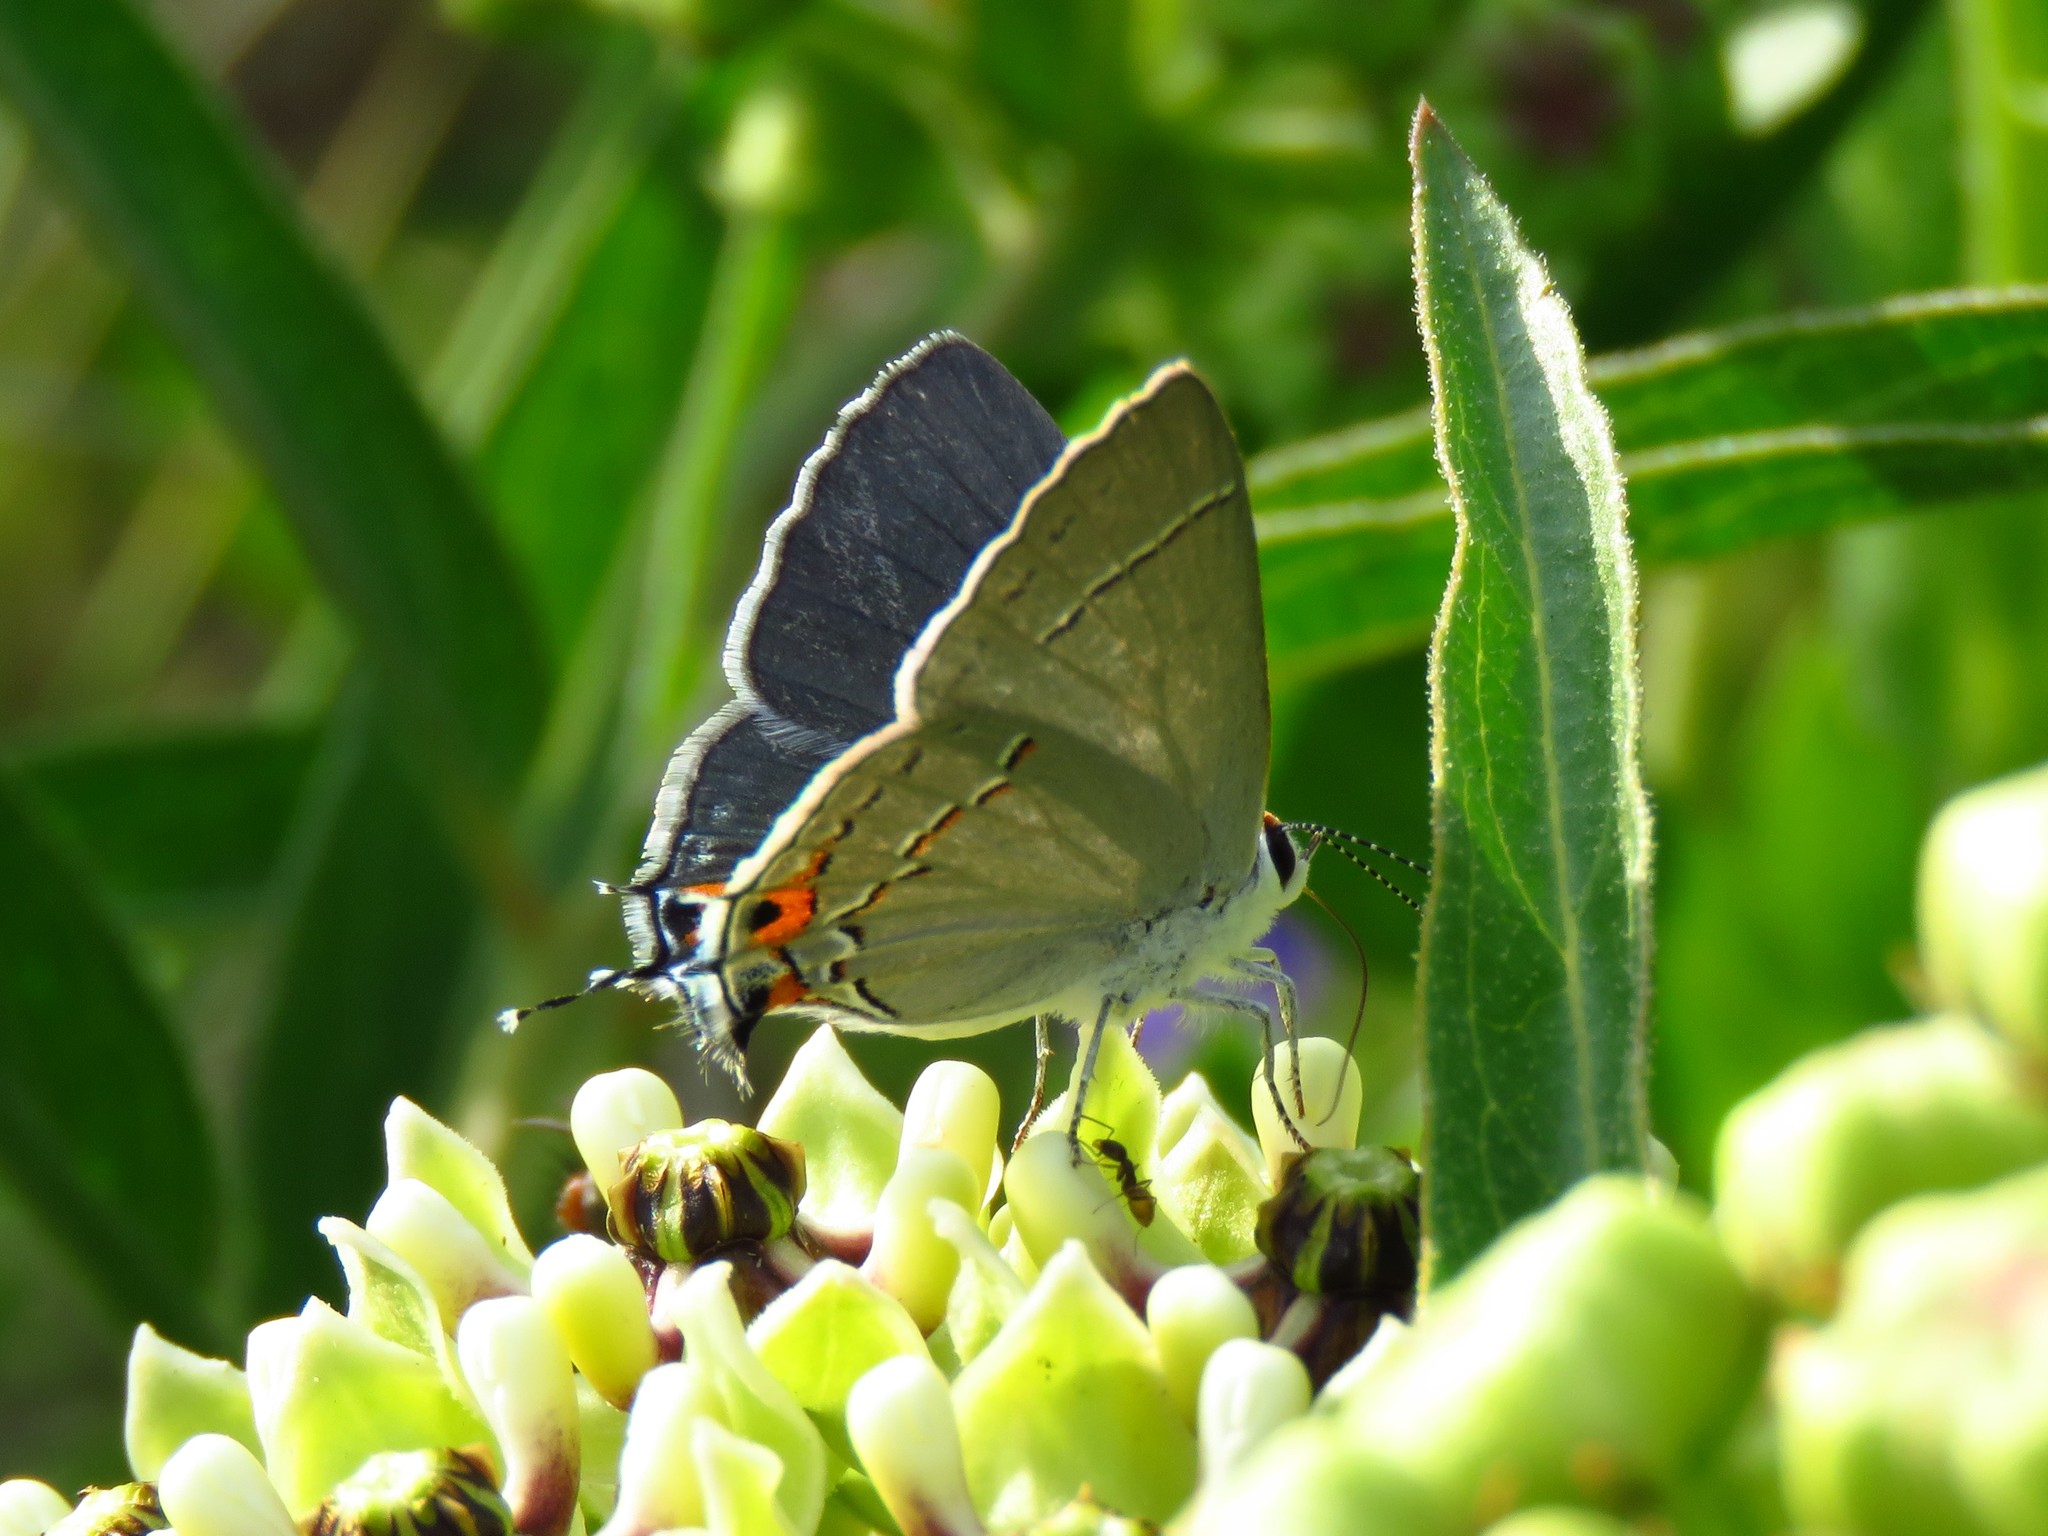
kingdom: Animalia
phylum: Arthropoda
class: Insecta
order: Lepidoptera
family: Lycaenidae
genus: Strymon
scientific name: Strymon melinus
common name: Gray hairstreak
